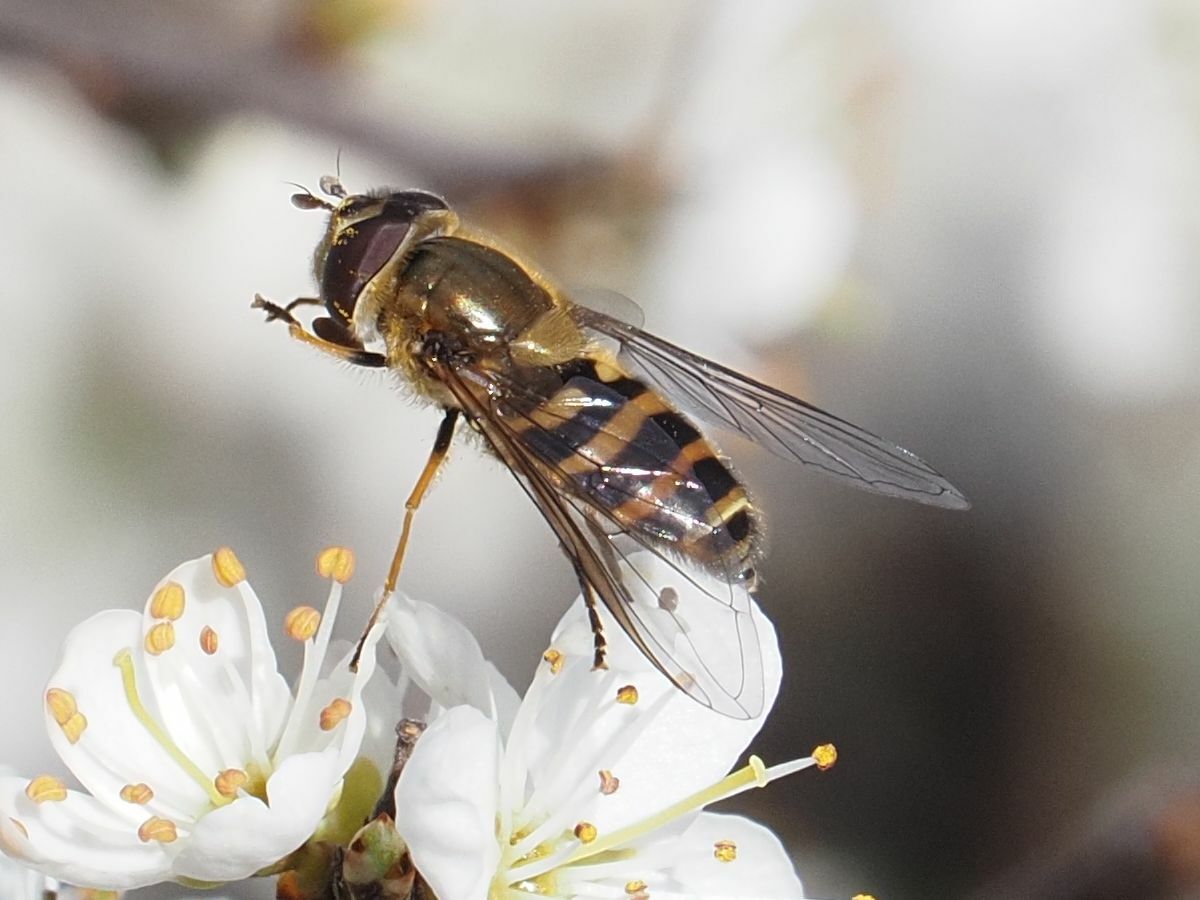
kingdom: Animalia
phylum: Arthropoda
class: Insecta
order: Diptera
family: Syrphidae
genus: Syrphus
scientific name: Syrphus torvus
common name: Hairy-eyed flower fly
